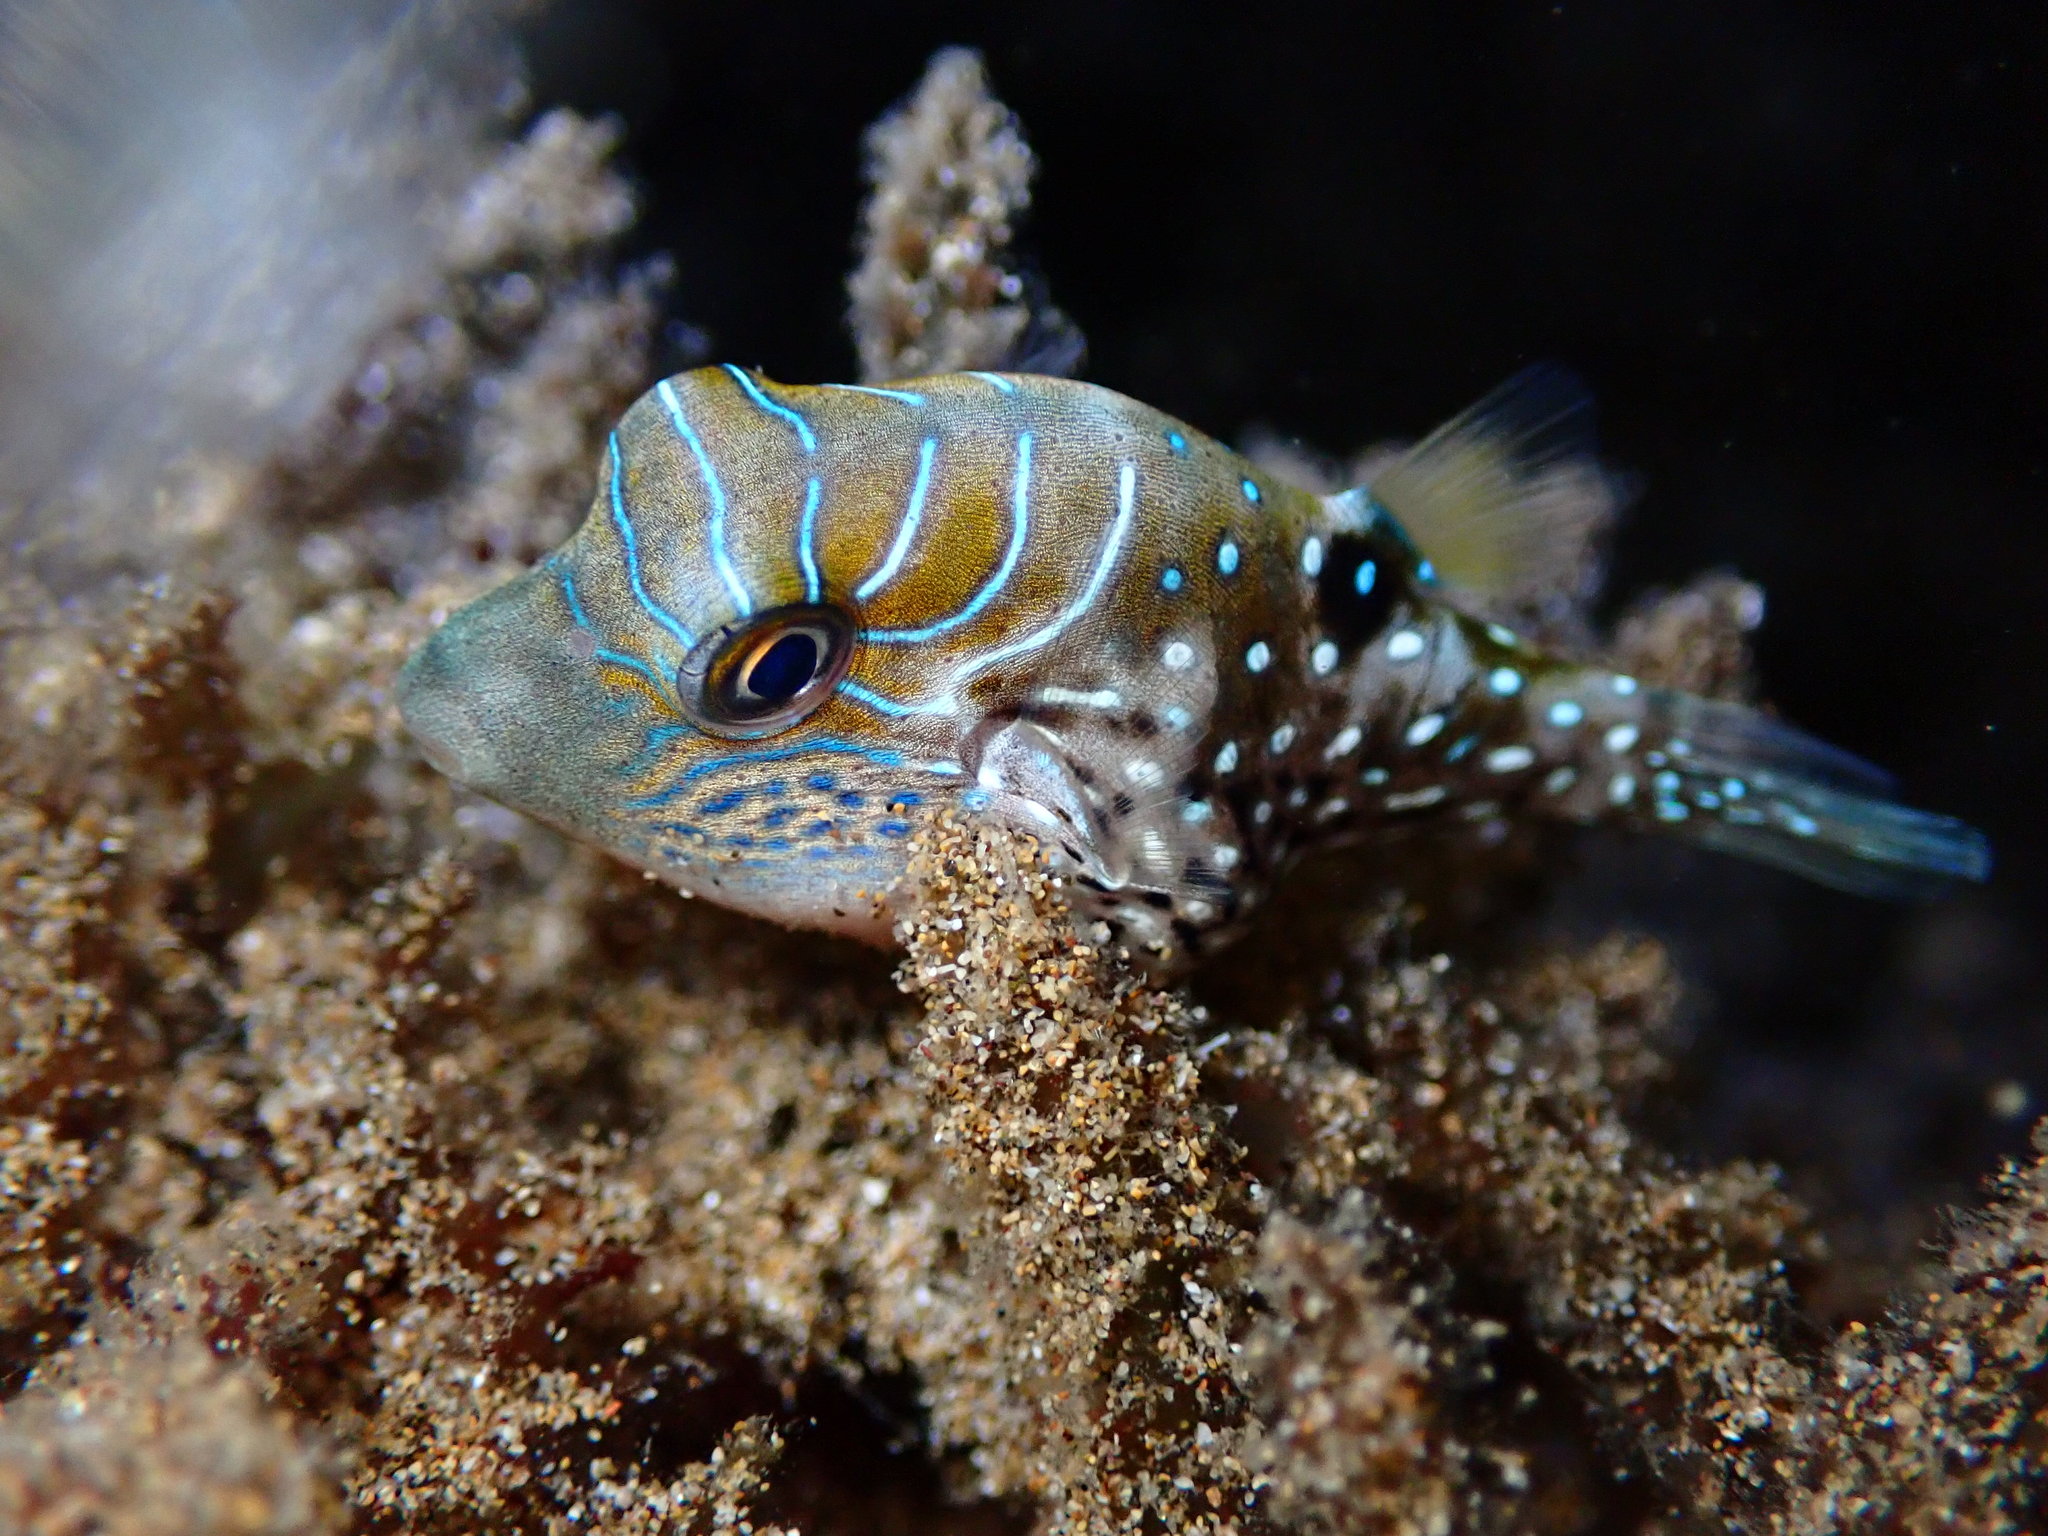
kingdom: Animalia
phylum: Chordata
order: Tetraodontiformes
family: Tetraodontidae
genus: Canthigaster
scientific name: Canthigaster amboinensis
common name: Ambon pufferfish
